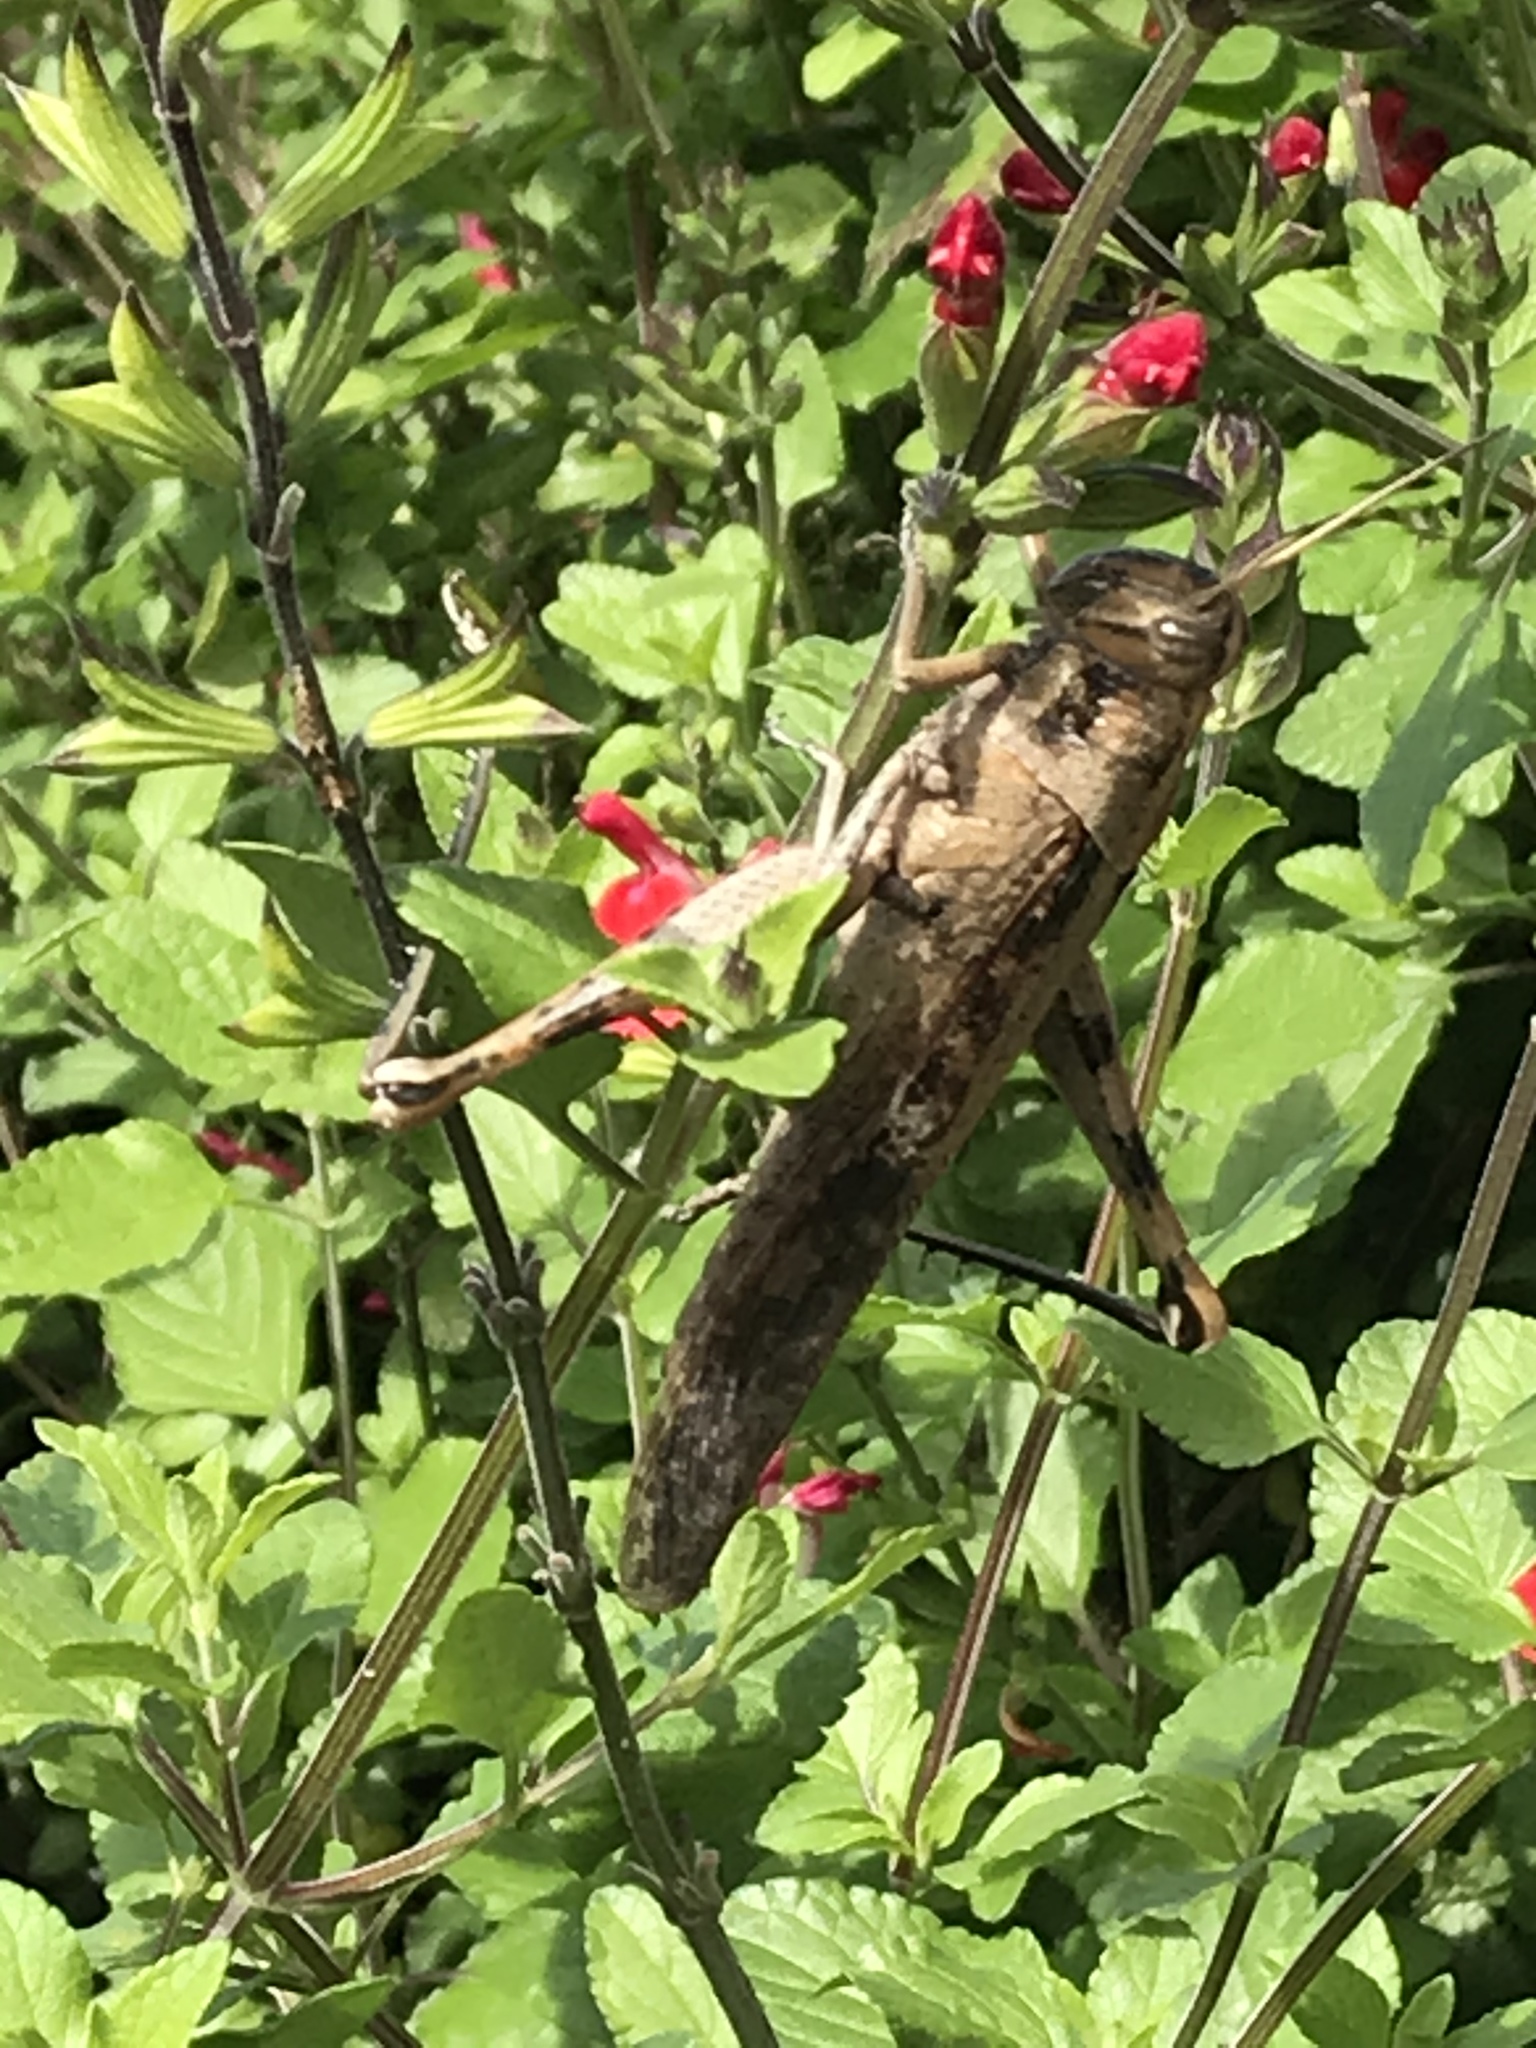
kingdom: Animalia
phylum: Arthropoda
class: Insecta
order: Orthoptera
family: Acrididae
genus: Schistocerca
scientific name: Schistocerca nitens
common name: Vagrant grasshopper
